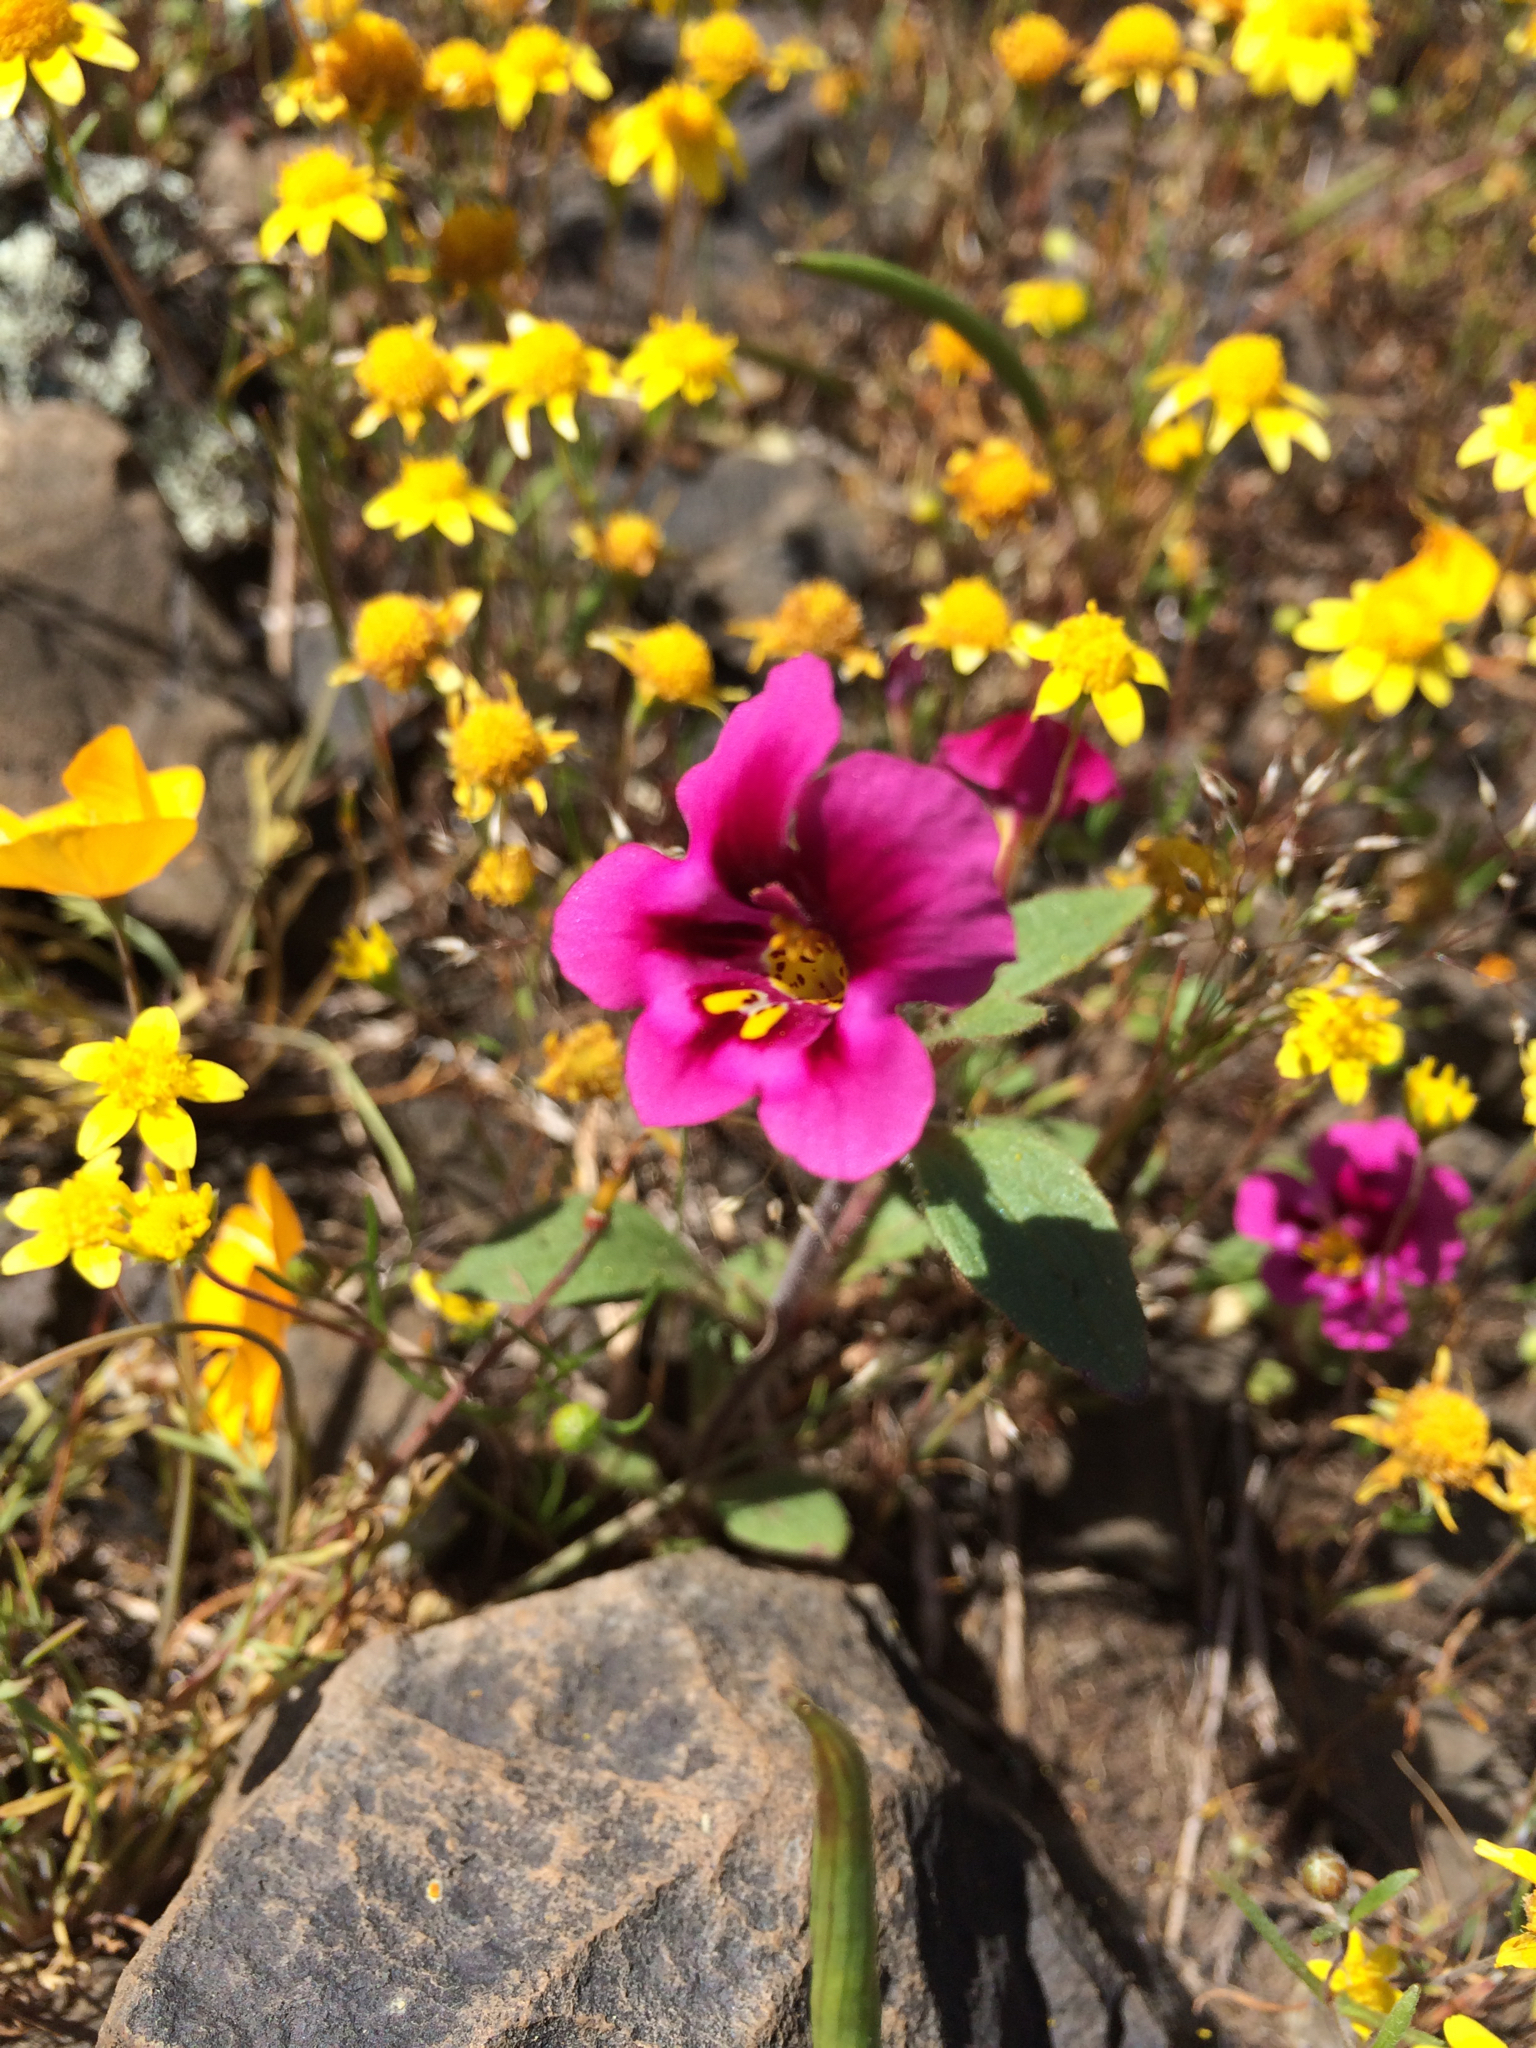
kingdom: Plantae
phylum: Tracheophyta
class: Magnoliopsida
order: Lamiales
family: Phrymaceae
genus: Diplacus
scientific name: Diplacus kelloggii
